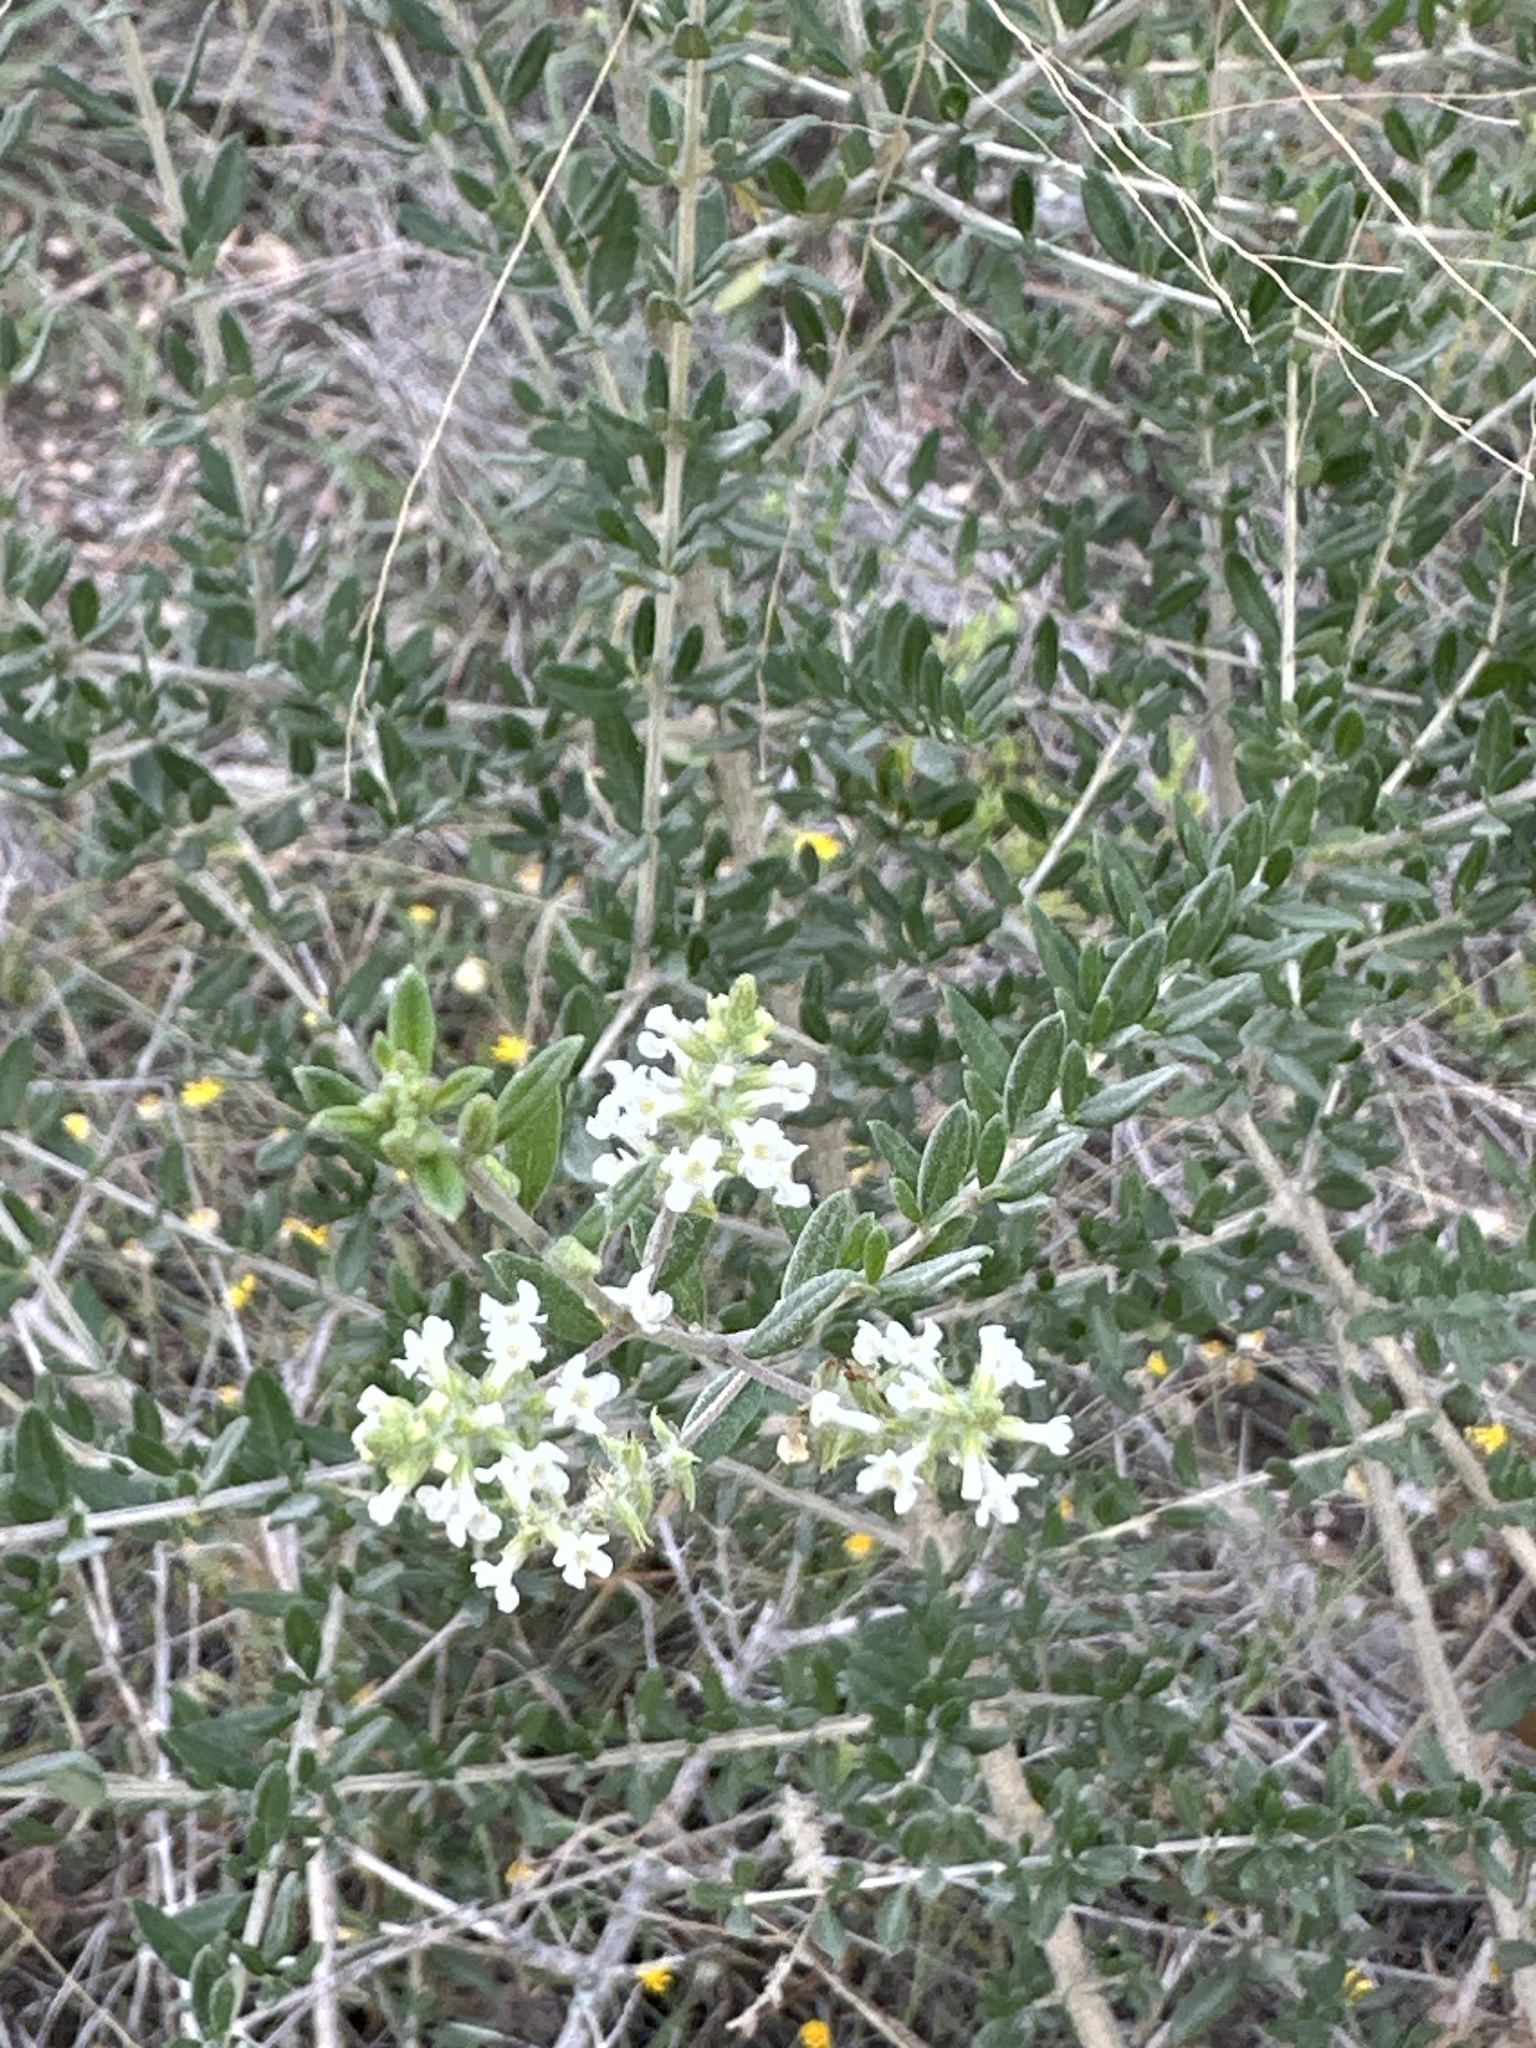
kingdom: Plantae
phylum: Tracheophyta
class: Magnoliopsida
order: Lamiales
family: Verbenaceae
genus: Aloysia
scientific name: Aloysia gratissima
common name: Common bee-brush
